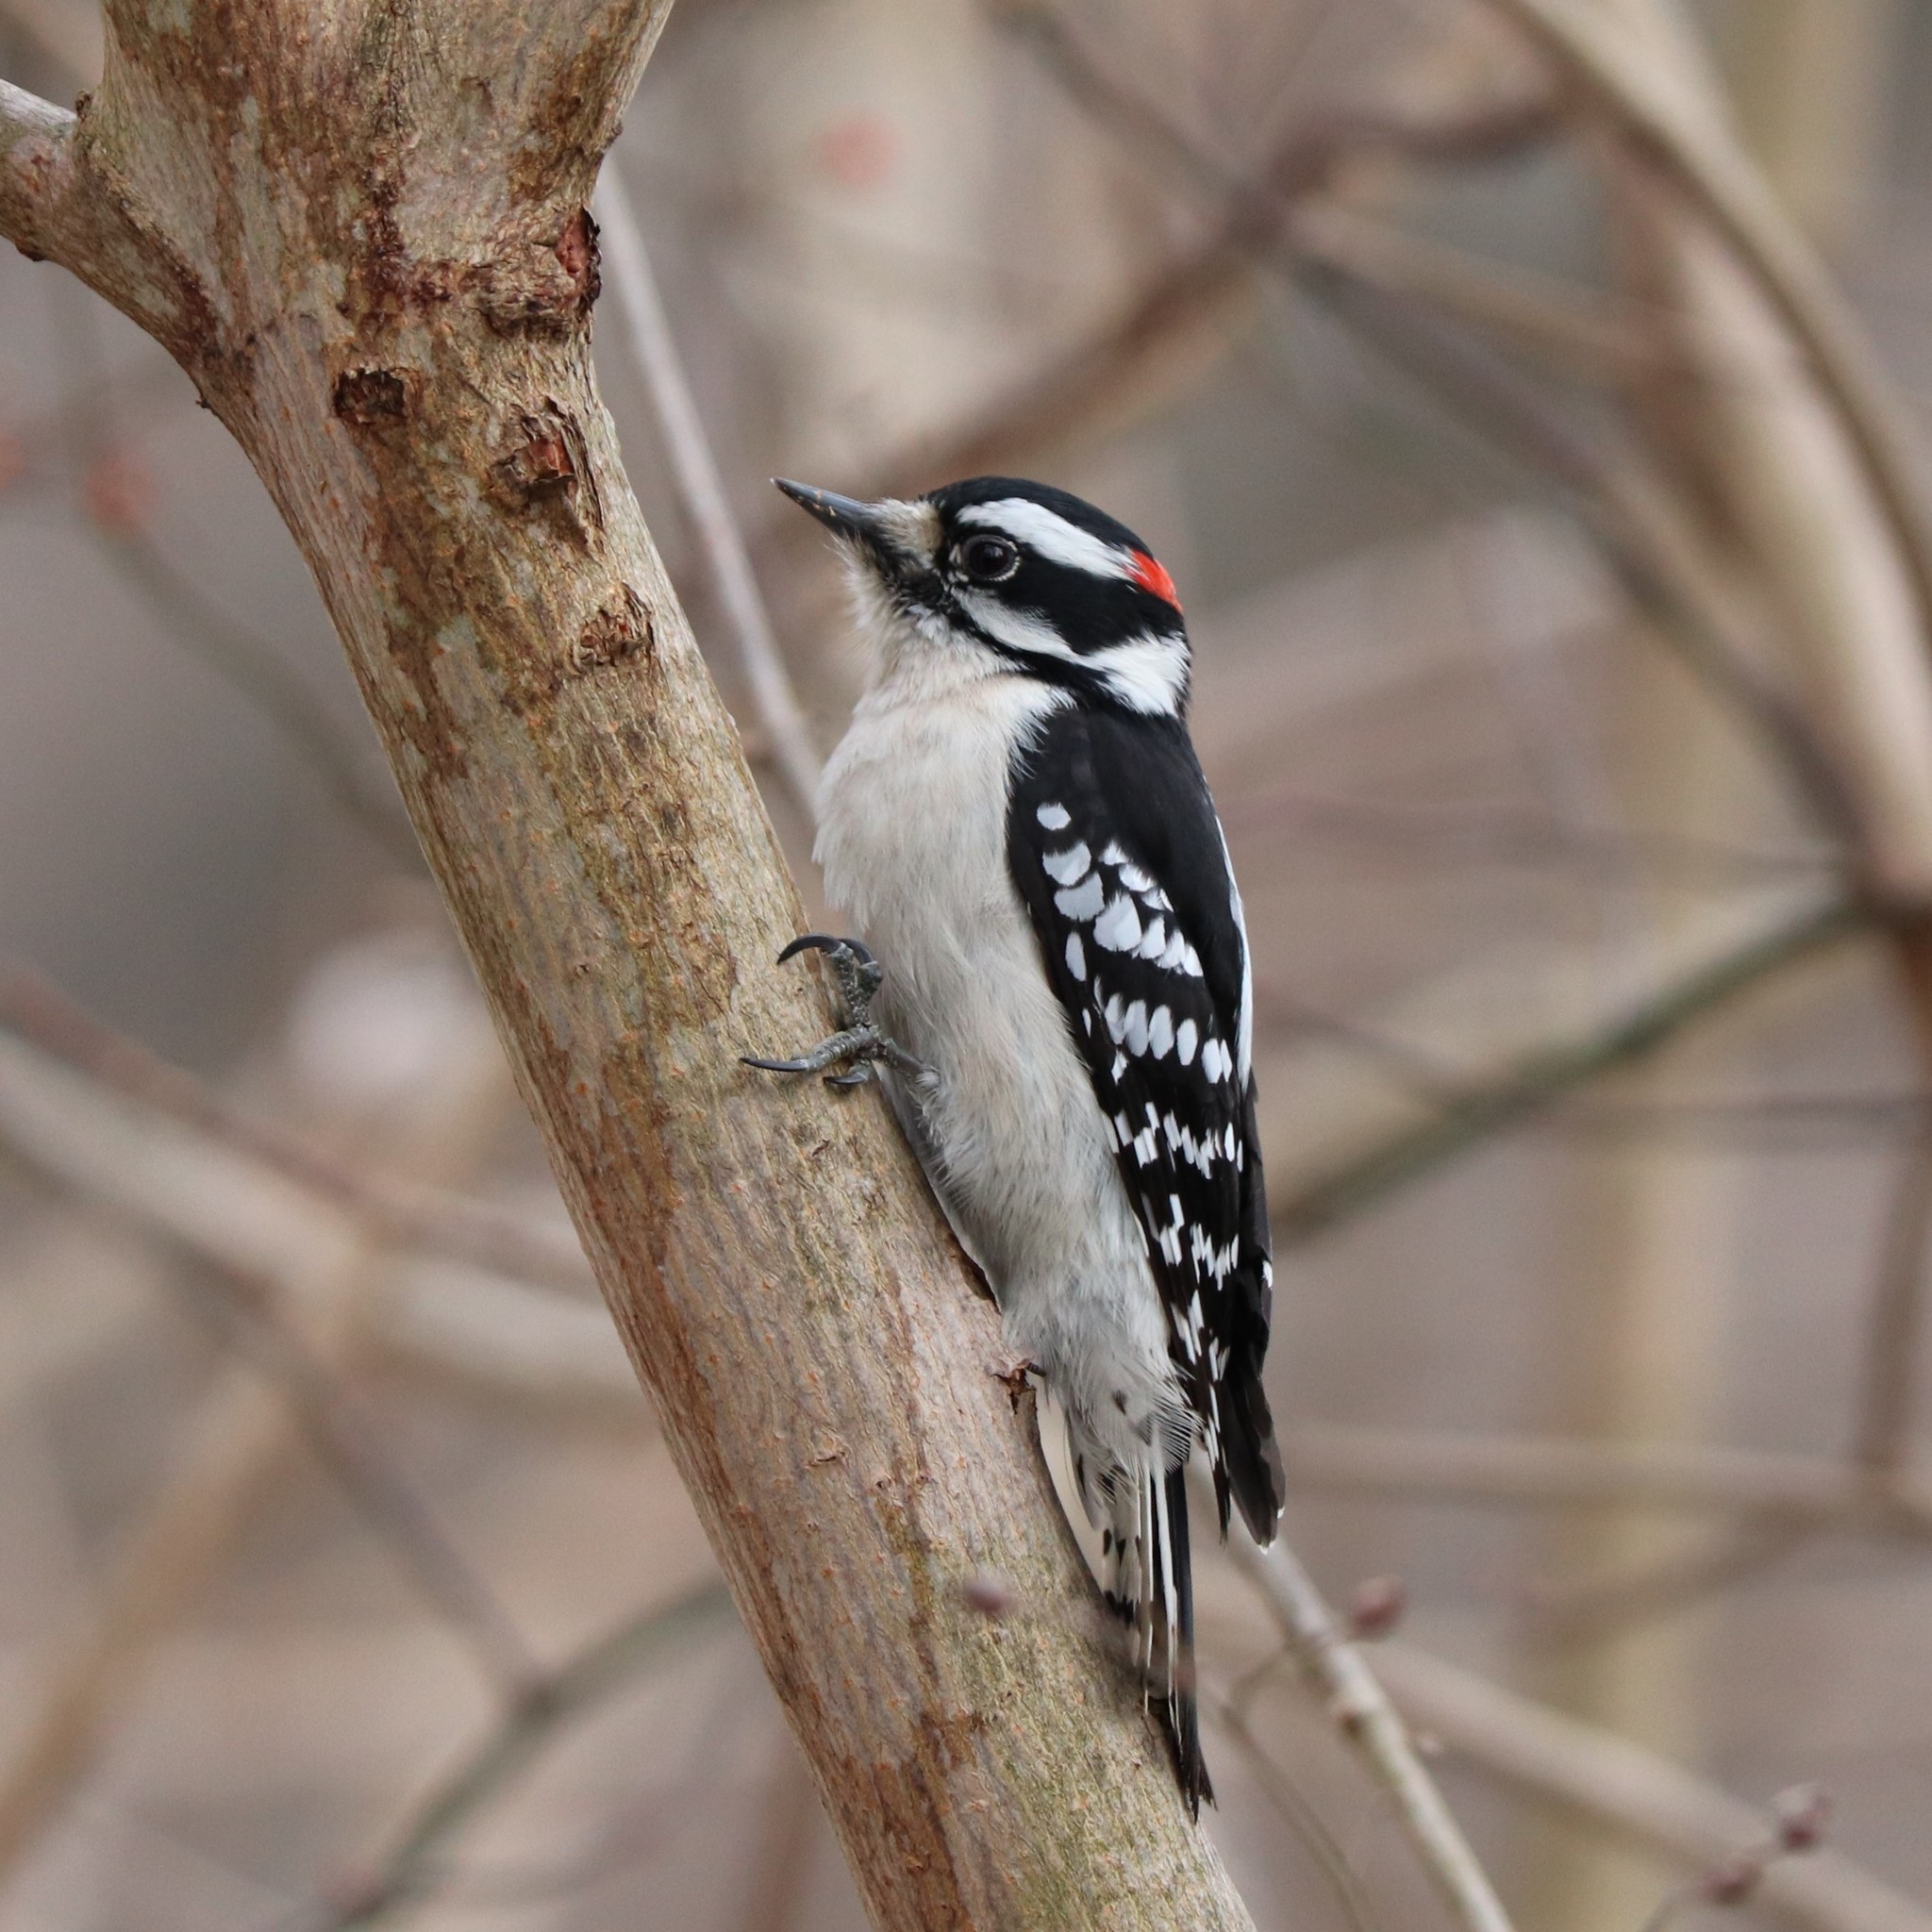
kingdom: Animalia
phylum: Chordata
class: Aves
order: Piciformes
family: Picidae
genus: Dryobates
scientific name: Dryobates pubescens
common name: Downy woodpecker
